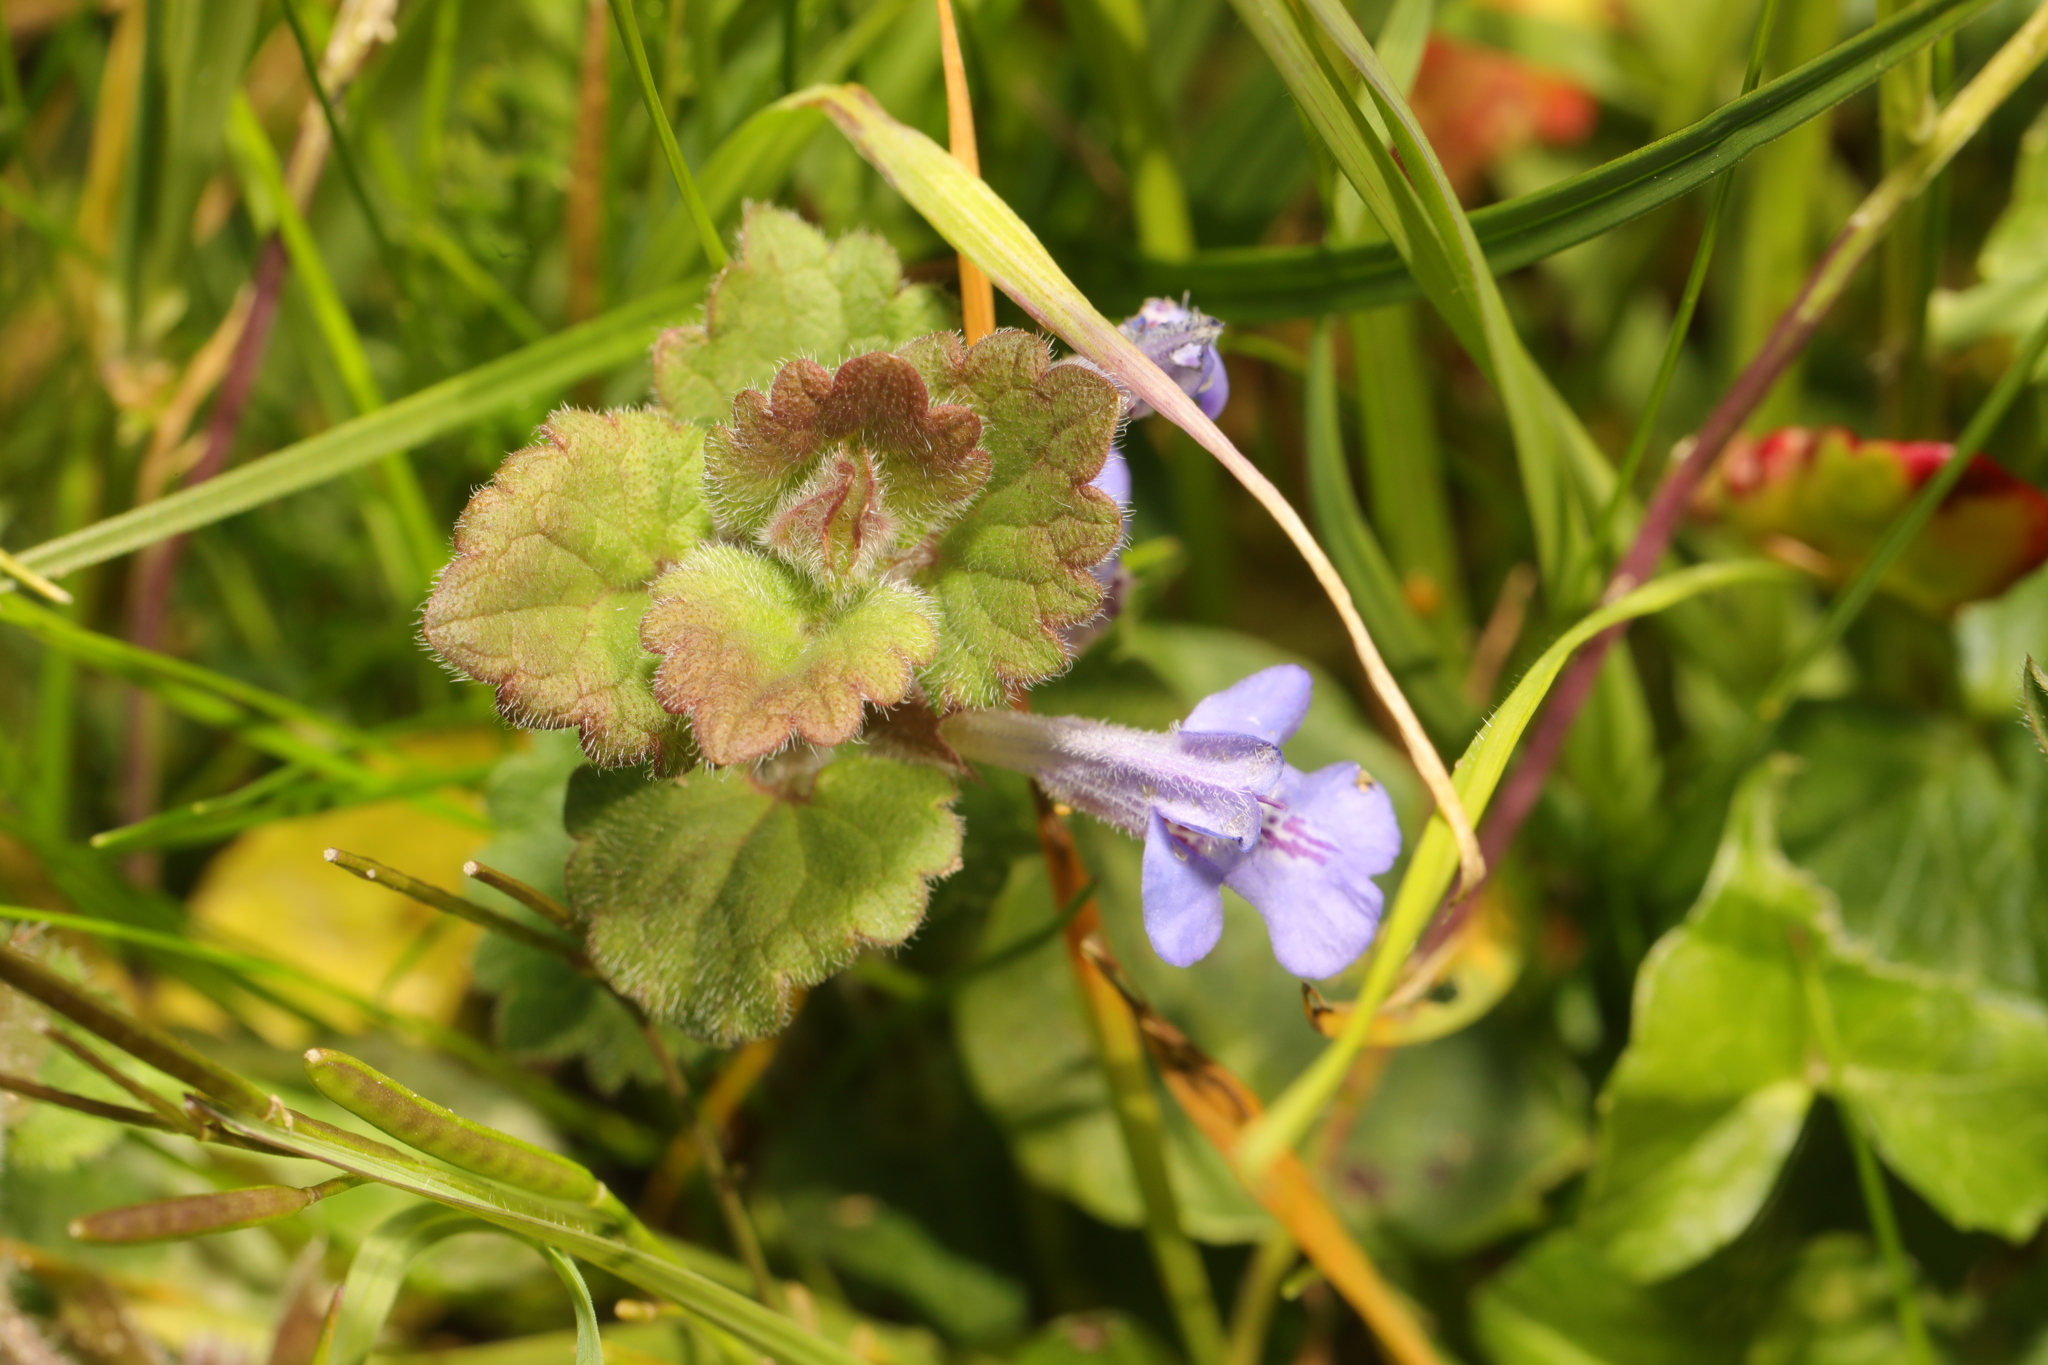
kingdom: Plantae
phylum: Tracheophyta
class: Magnoliopsida
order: Lamiales
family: Lamiaceae
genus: Glechoma
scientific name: Glechoma hederacea
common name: Ground ivy
